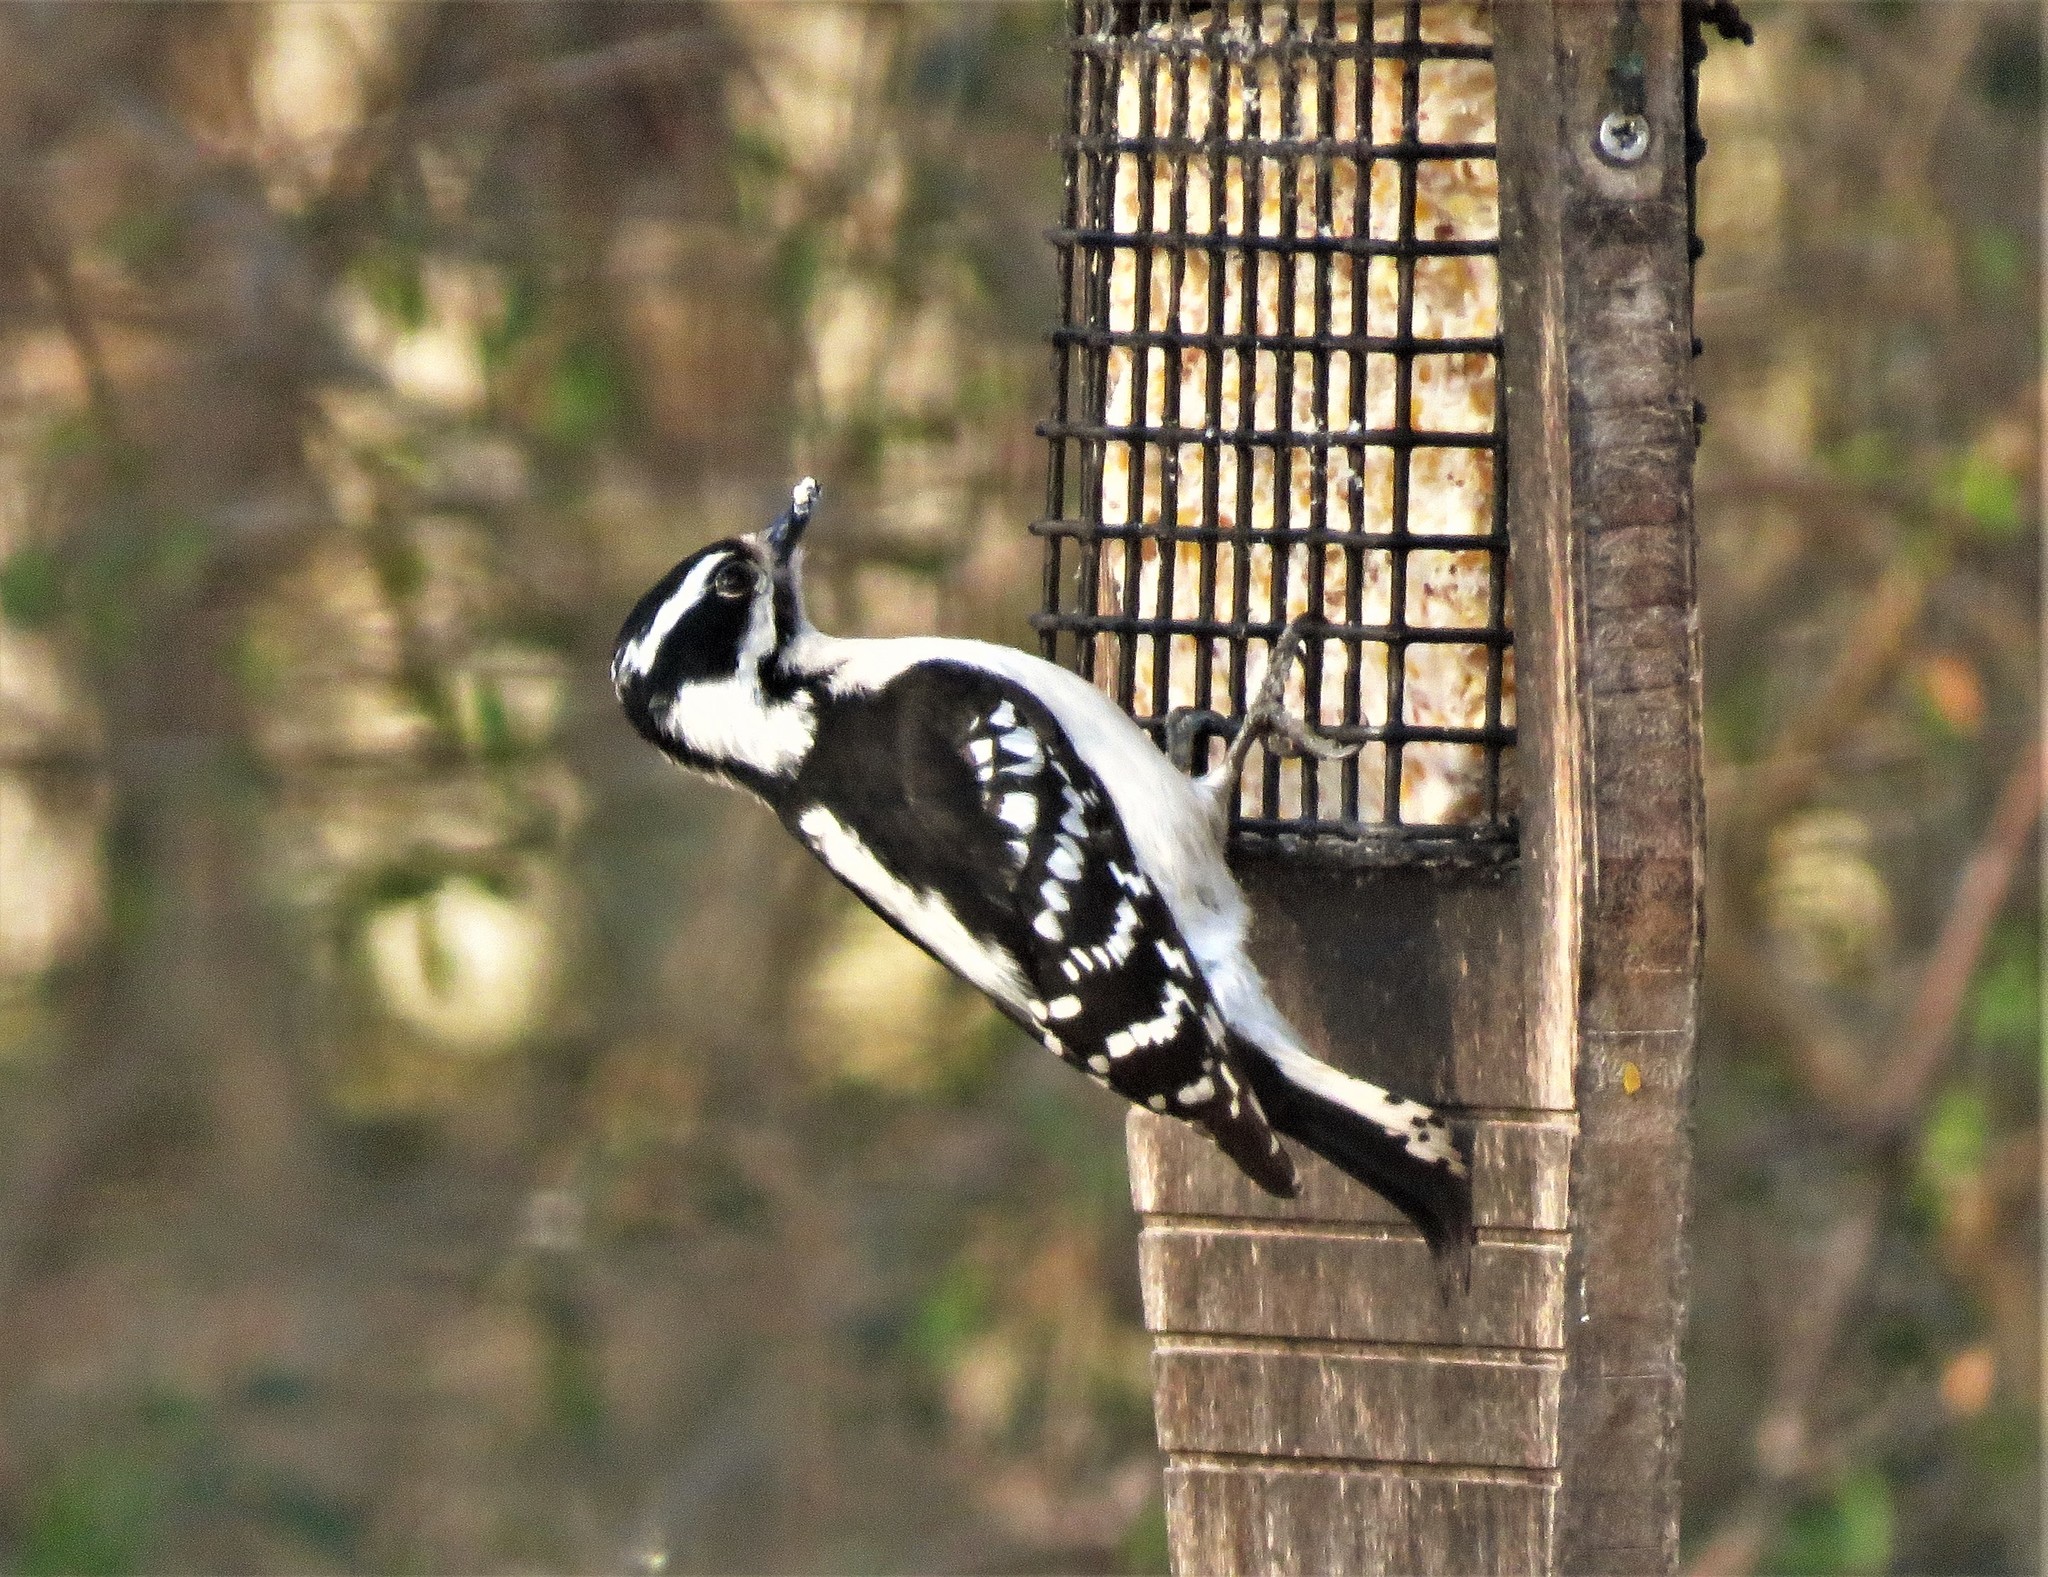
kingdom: Animalia
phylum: Chordata
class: Aves
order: Piciformes
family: Picidae
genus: Dryobates
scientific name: Dryobates pubescens
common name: Downy woodpecker
